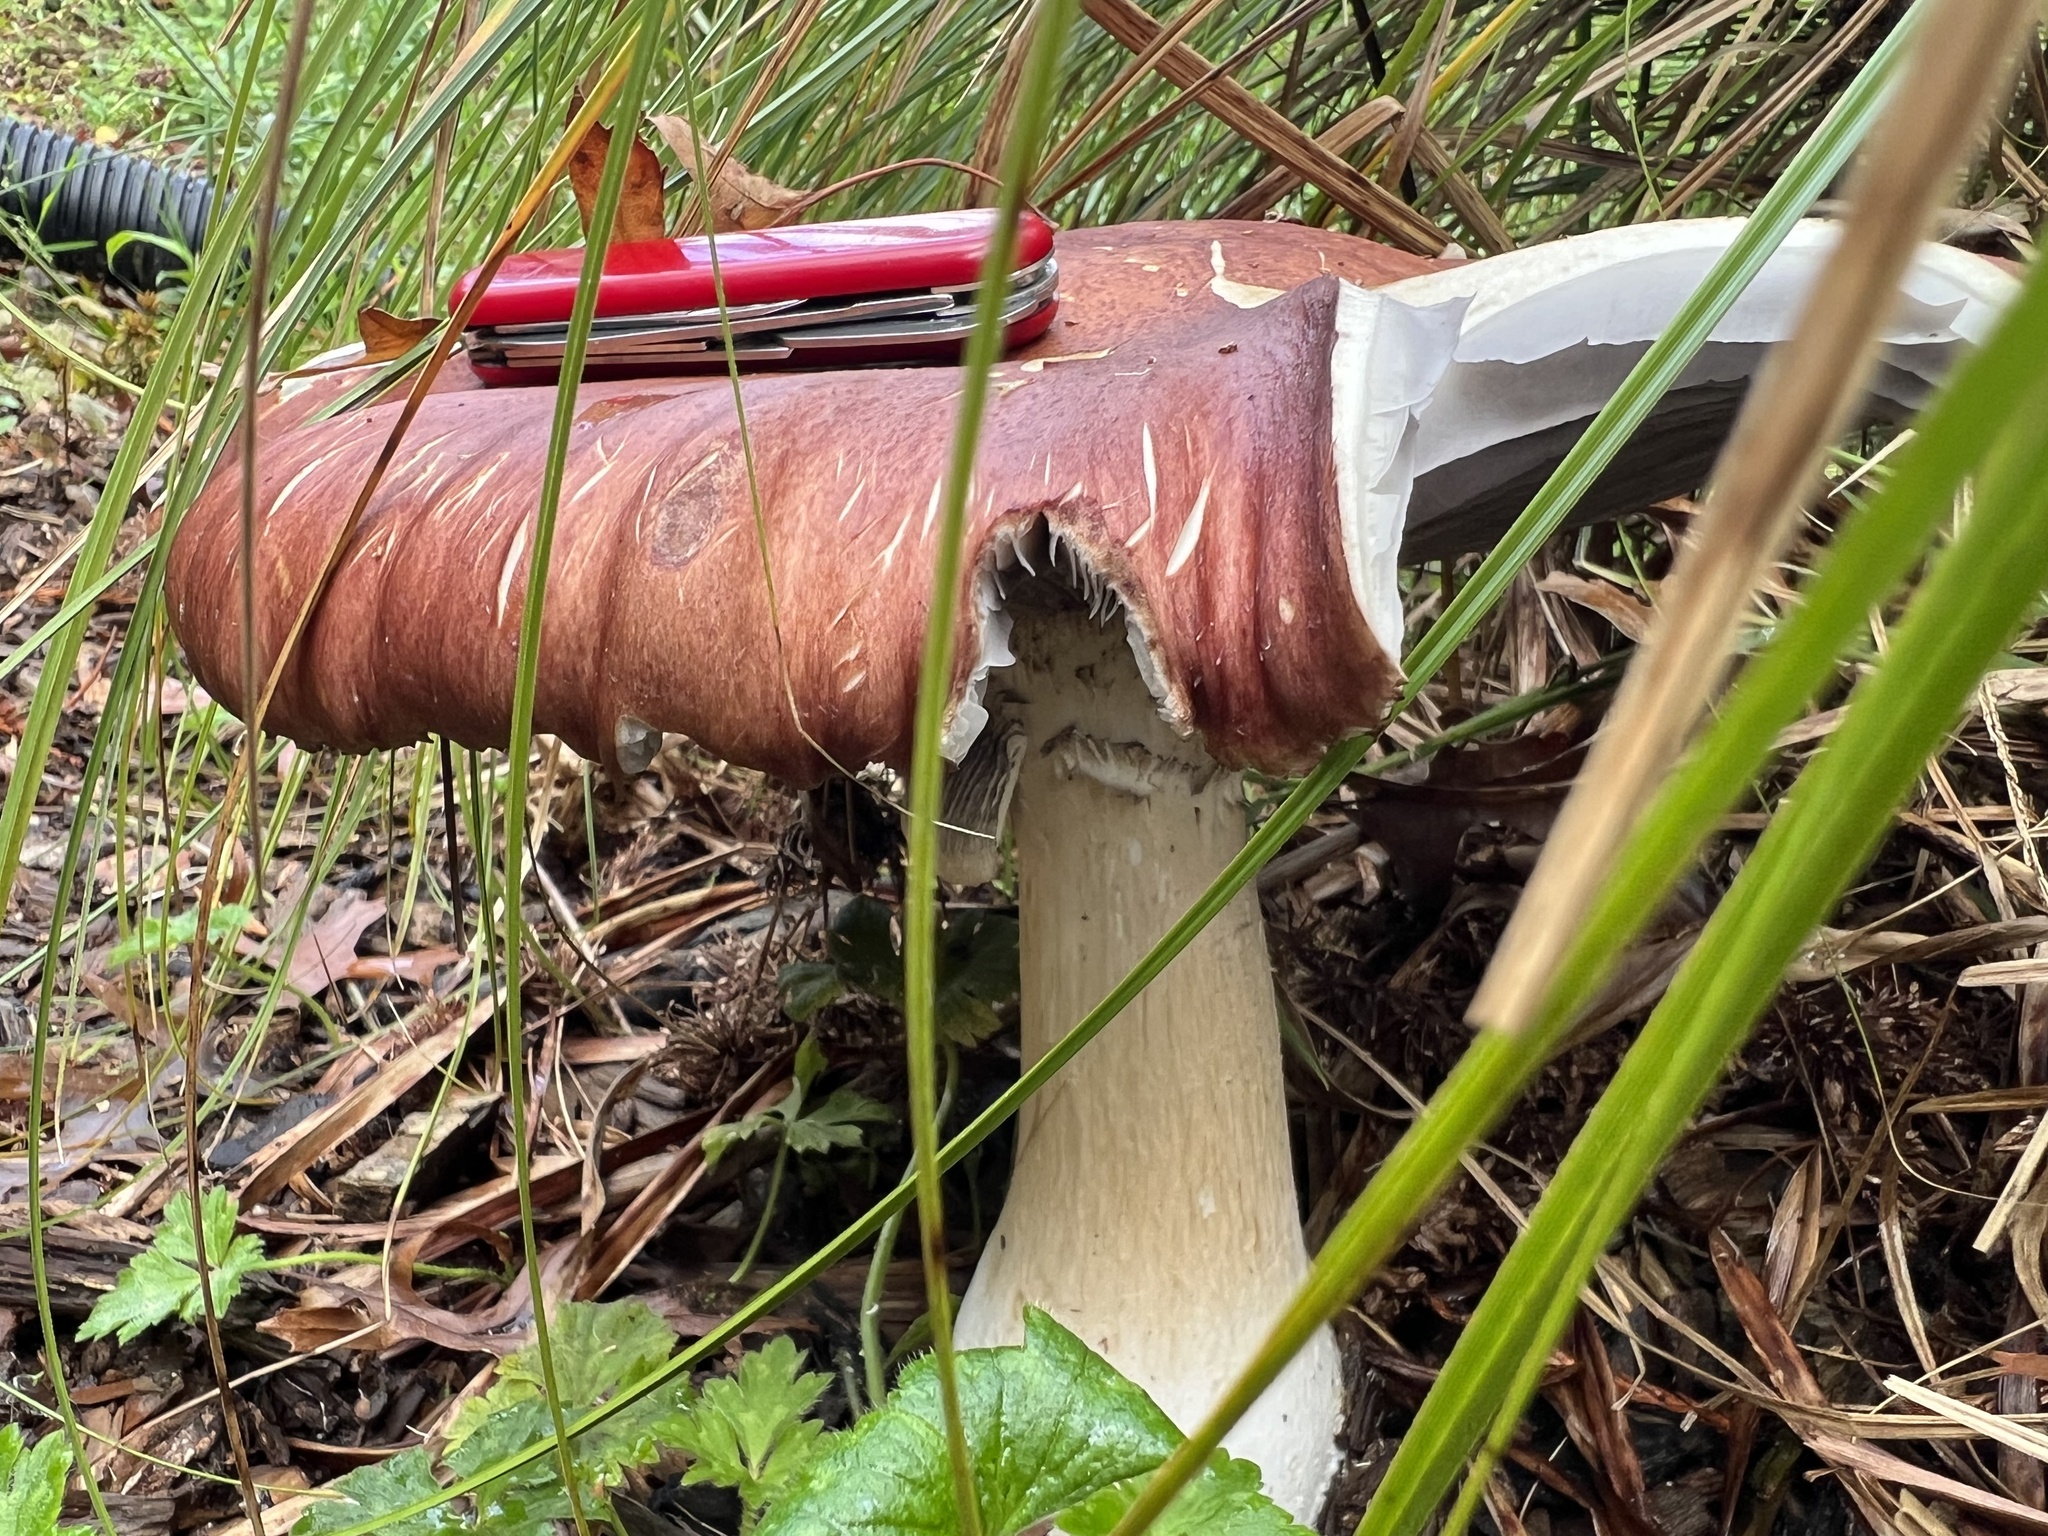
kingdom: Fungi
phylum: Basidiomycota
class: Agaricomycetes
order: Agaricales
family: Strophariaceae
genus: Stropharia
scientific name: Stropharia rugosoannulata
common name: Wine roundhead
